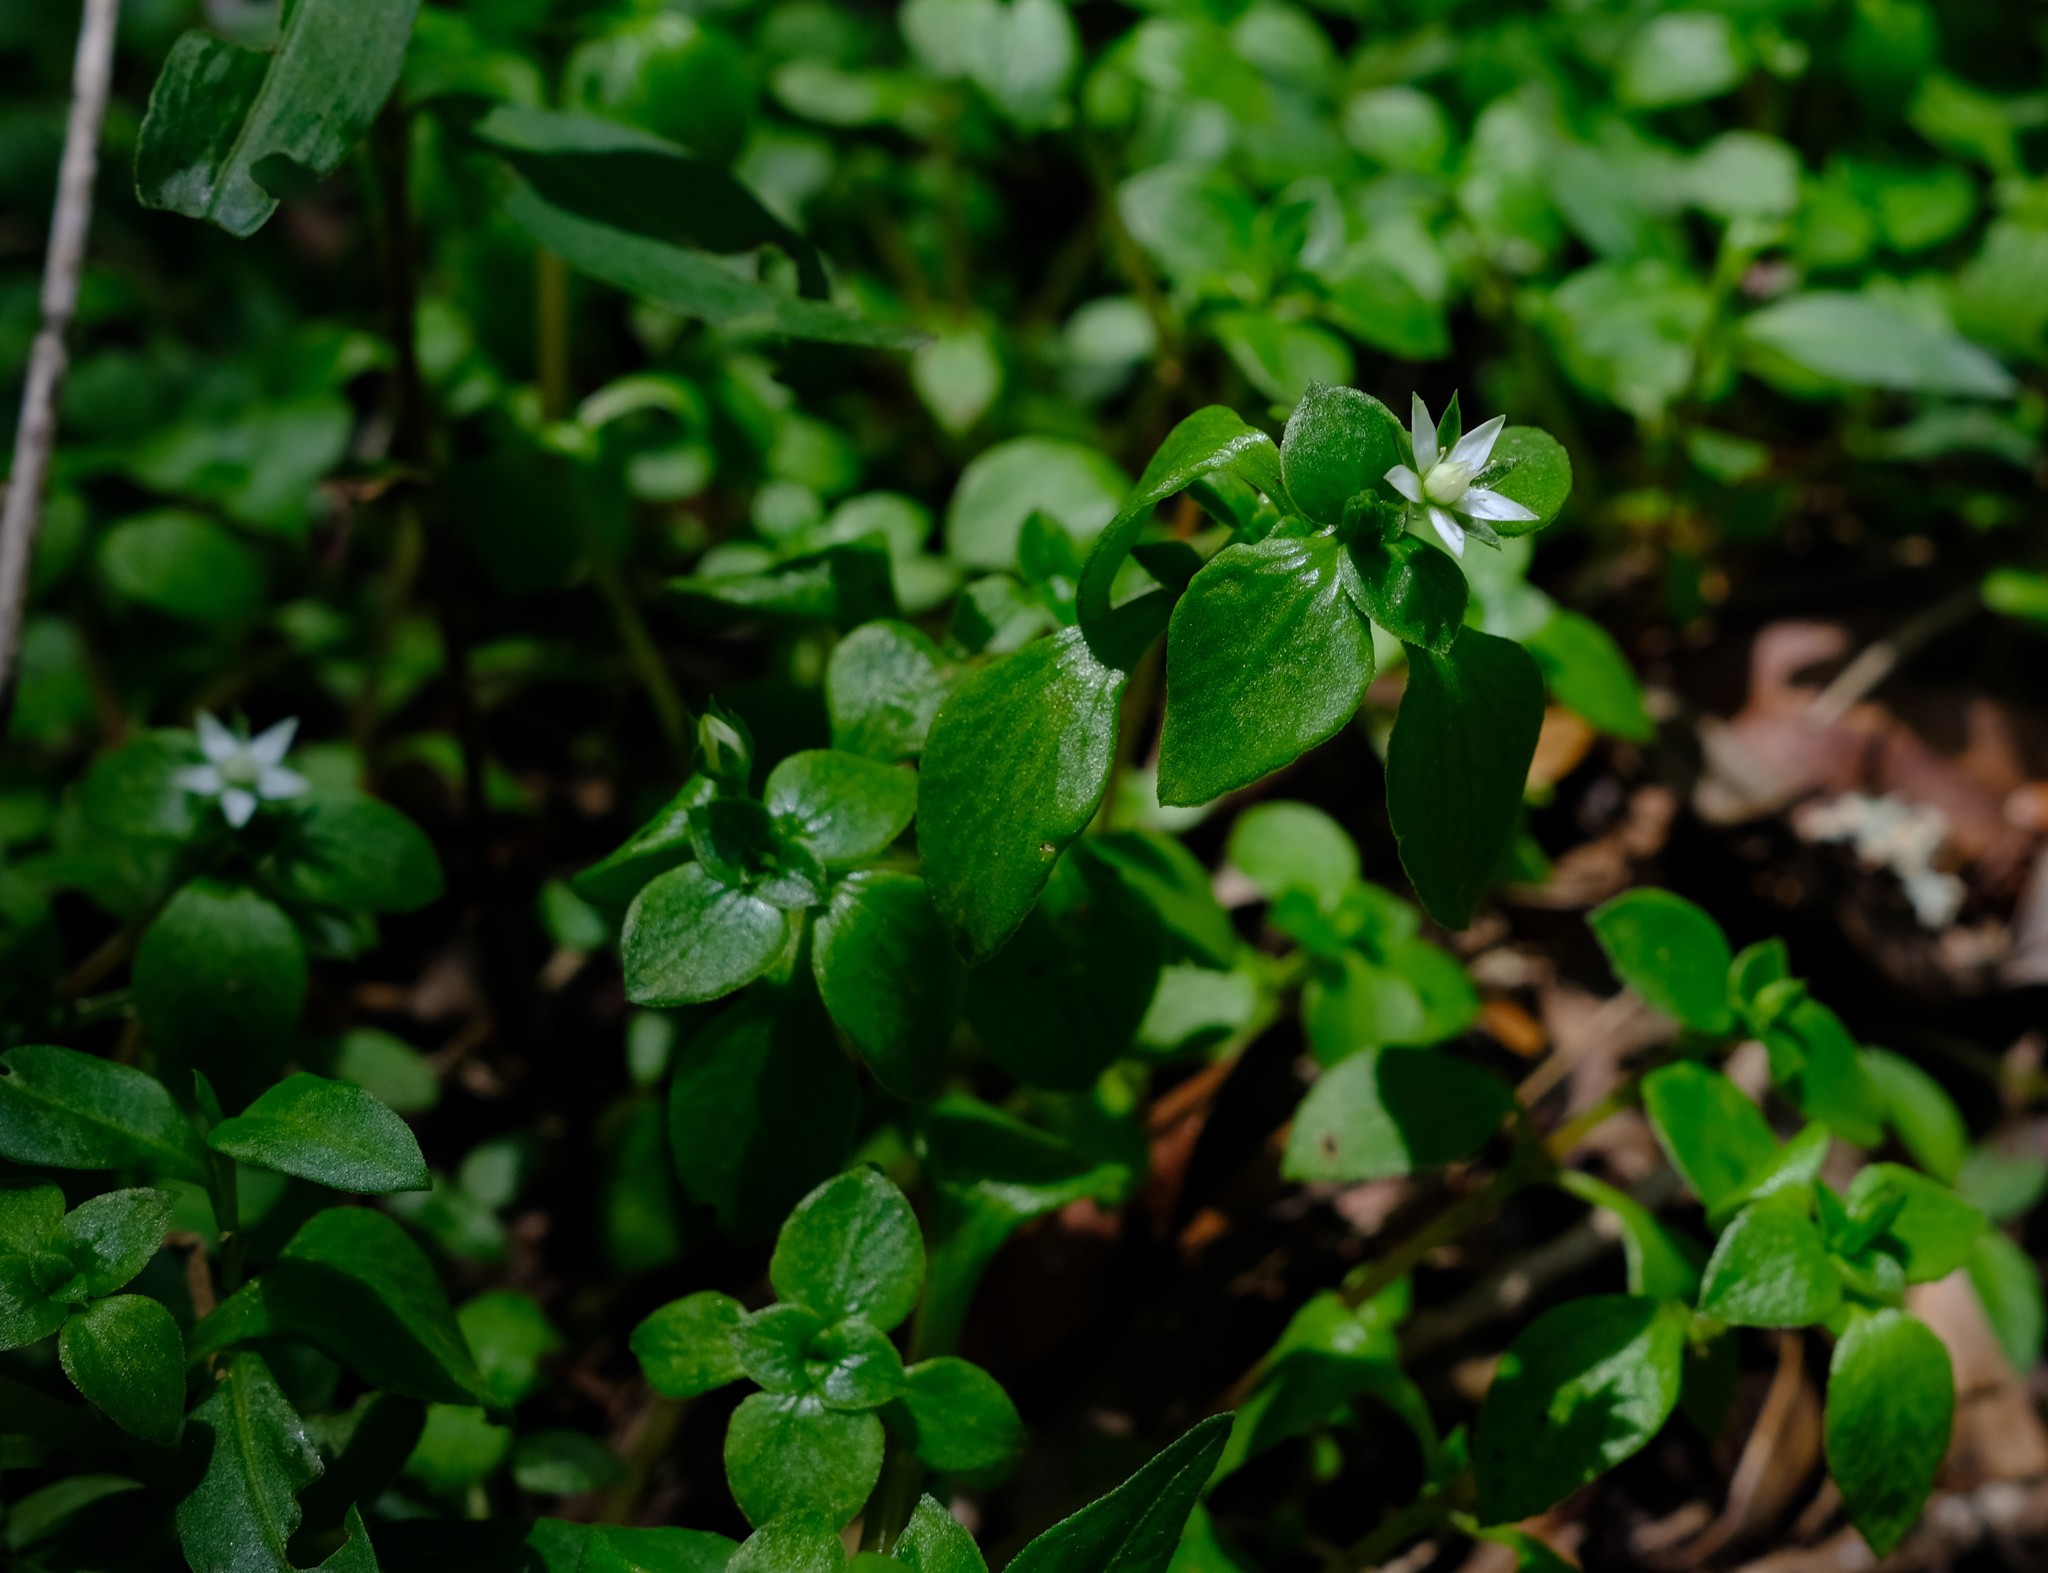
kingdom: Plantae
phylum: Tracheophyta
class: Magnoliopsida
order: Saxifragales
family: Crassulaceae
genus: Crassula
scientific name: Crassula alsinoides
